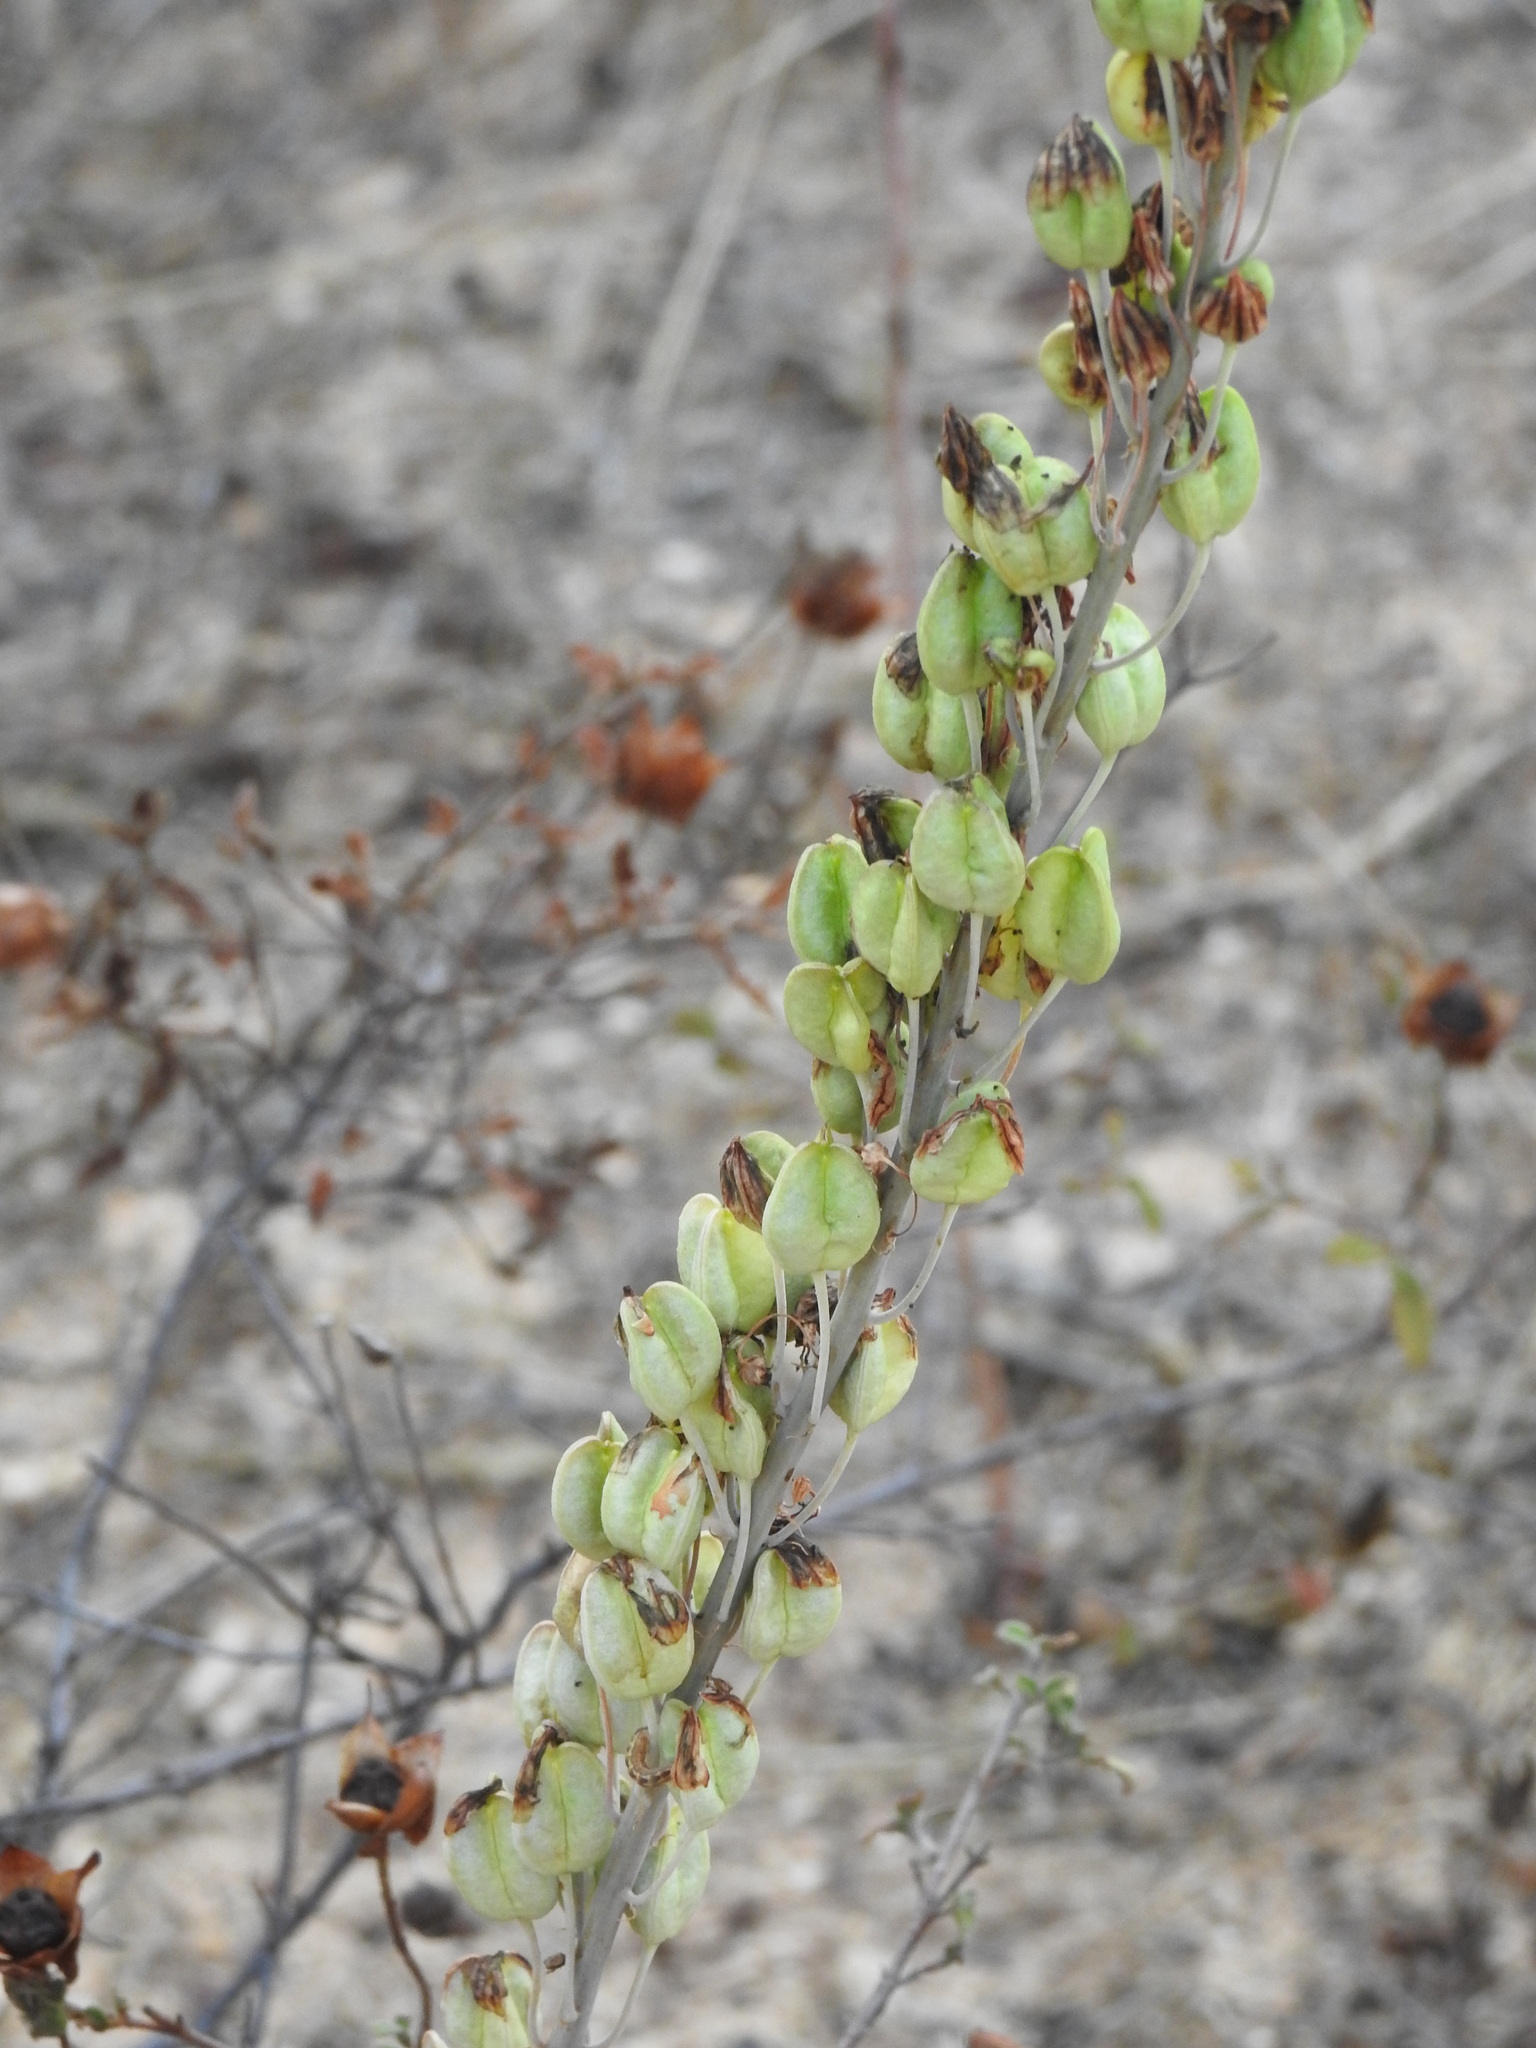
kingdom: Plantae
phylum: Tracheophyta
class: Liliopsida
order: Asparagales
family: Asparagaceae
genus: Drimia
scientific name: Drimia maritima
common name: Maritime squill
